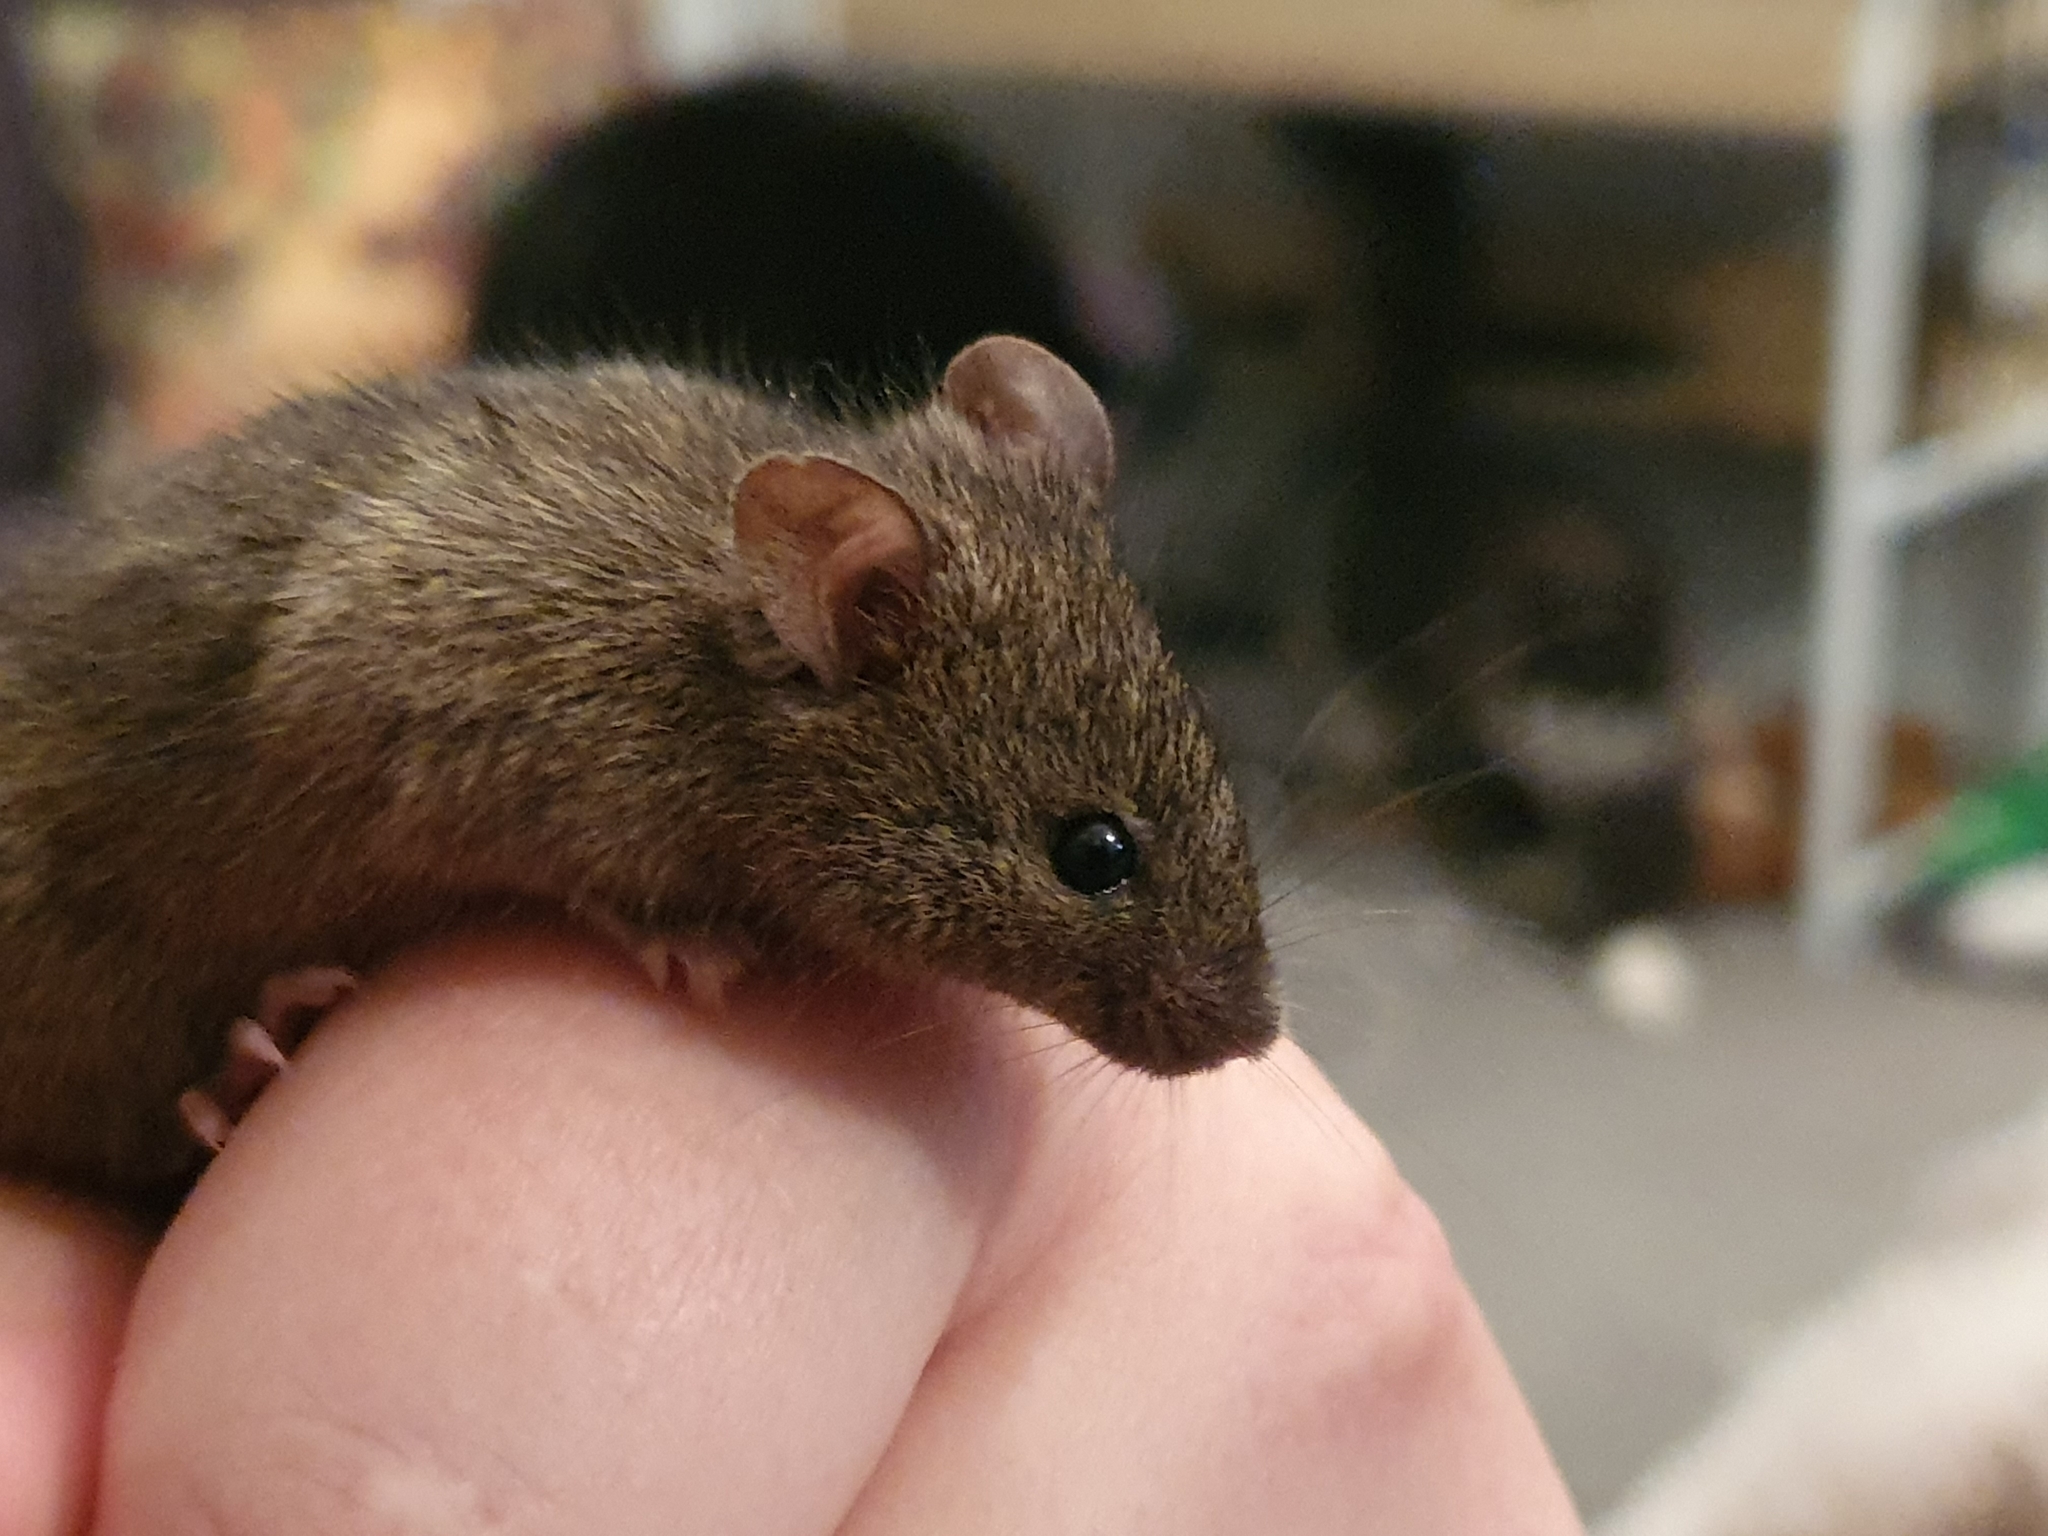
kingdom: Animalia
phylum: Chordata
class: Mammalia
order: Rodentia
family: Muridae
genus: Mus
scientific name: Mus musculus
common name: House mouse
